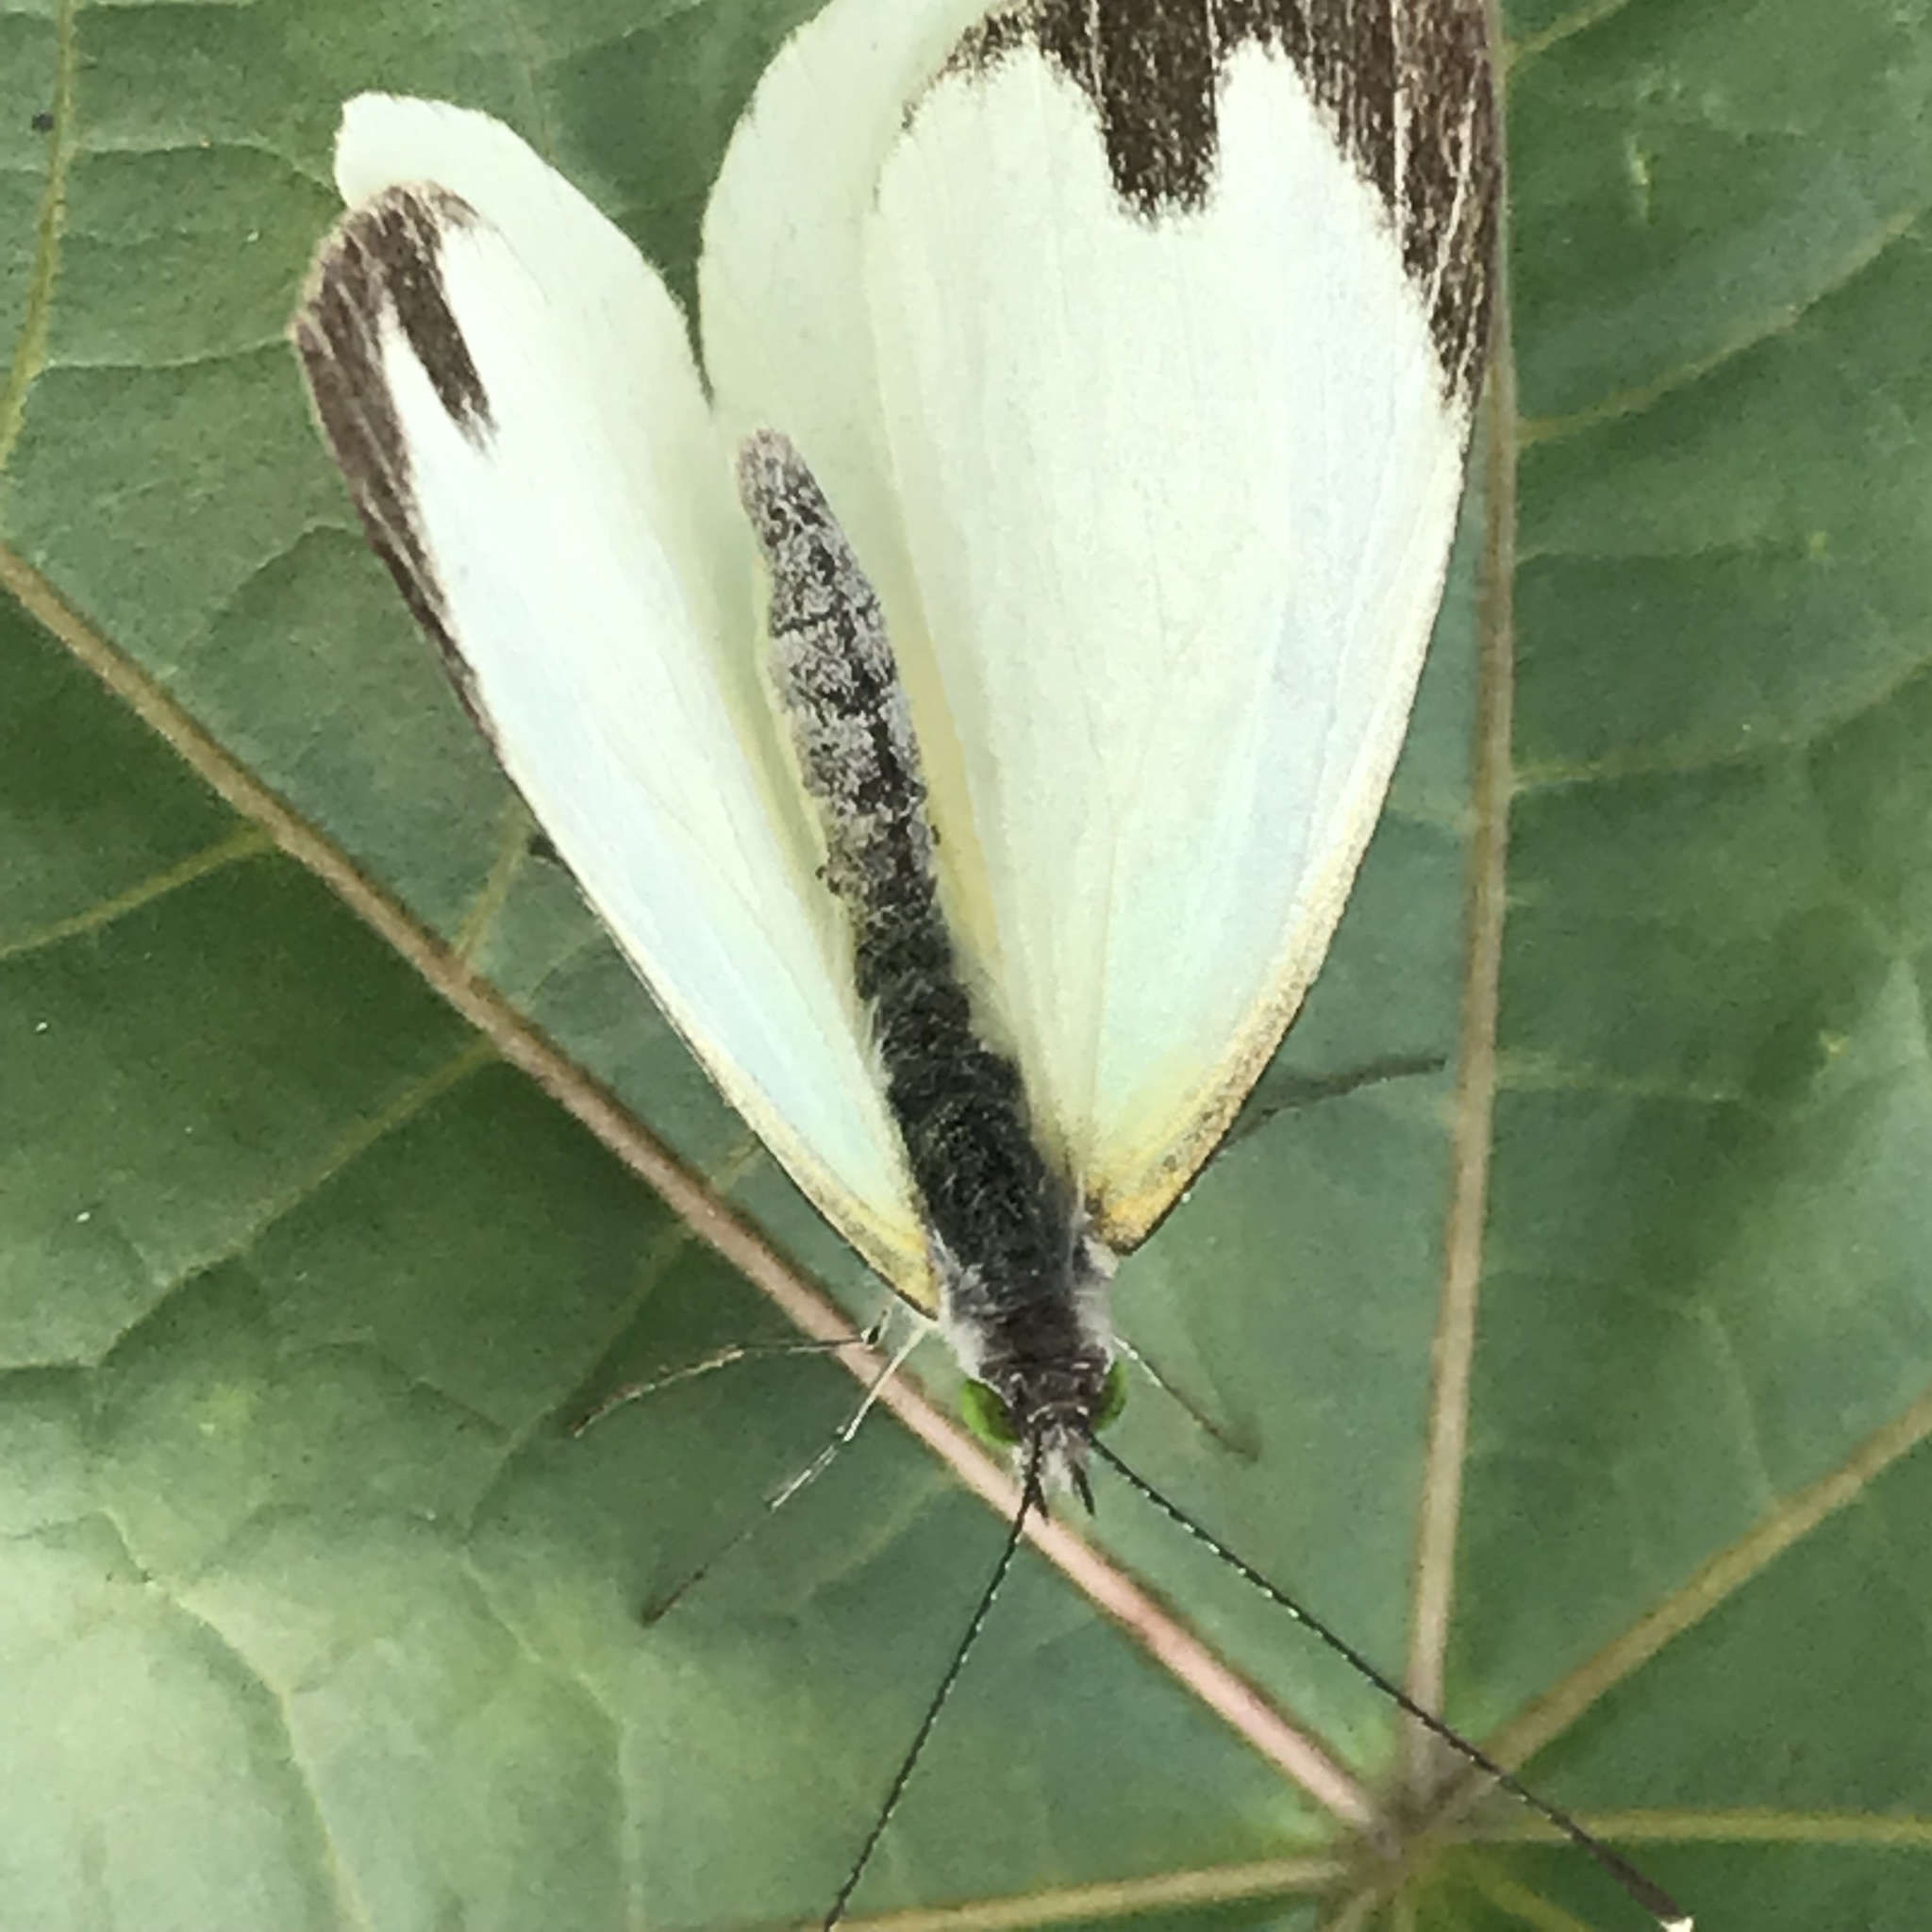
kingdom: Animalia
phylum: Arthropoda
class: Insecta
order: Lepidoptera
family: Pieridae
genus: Leptophobia
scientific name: Leptophobia aripa
